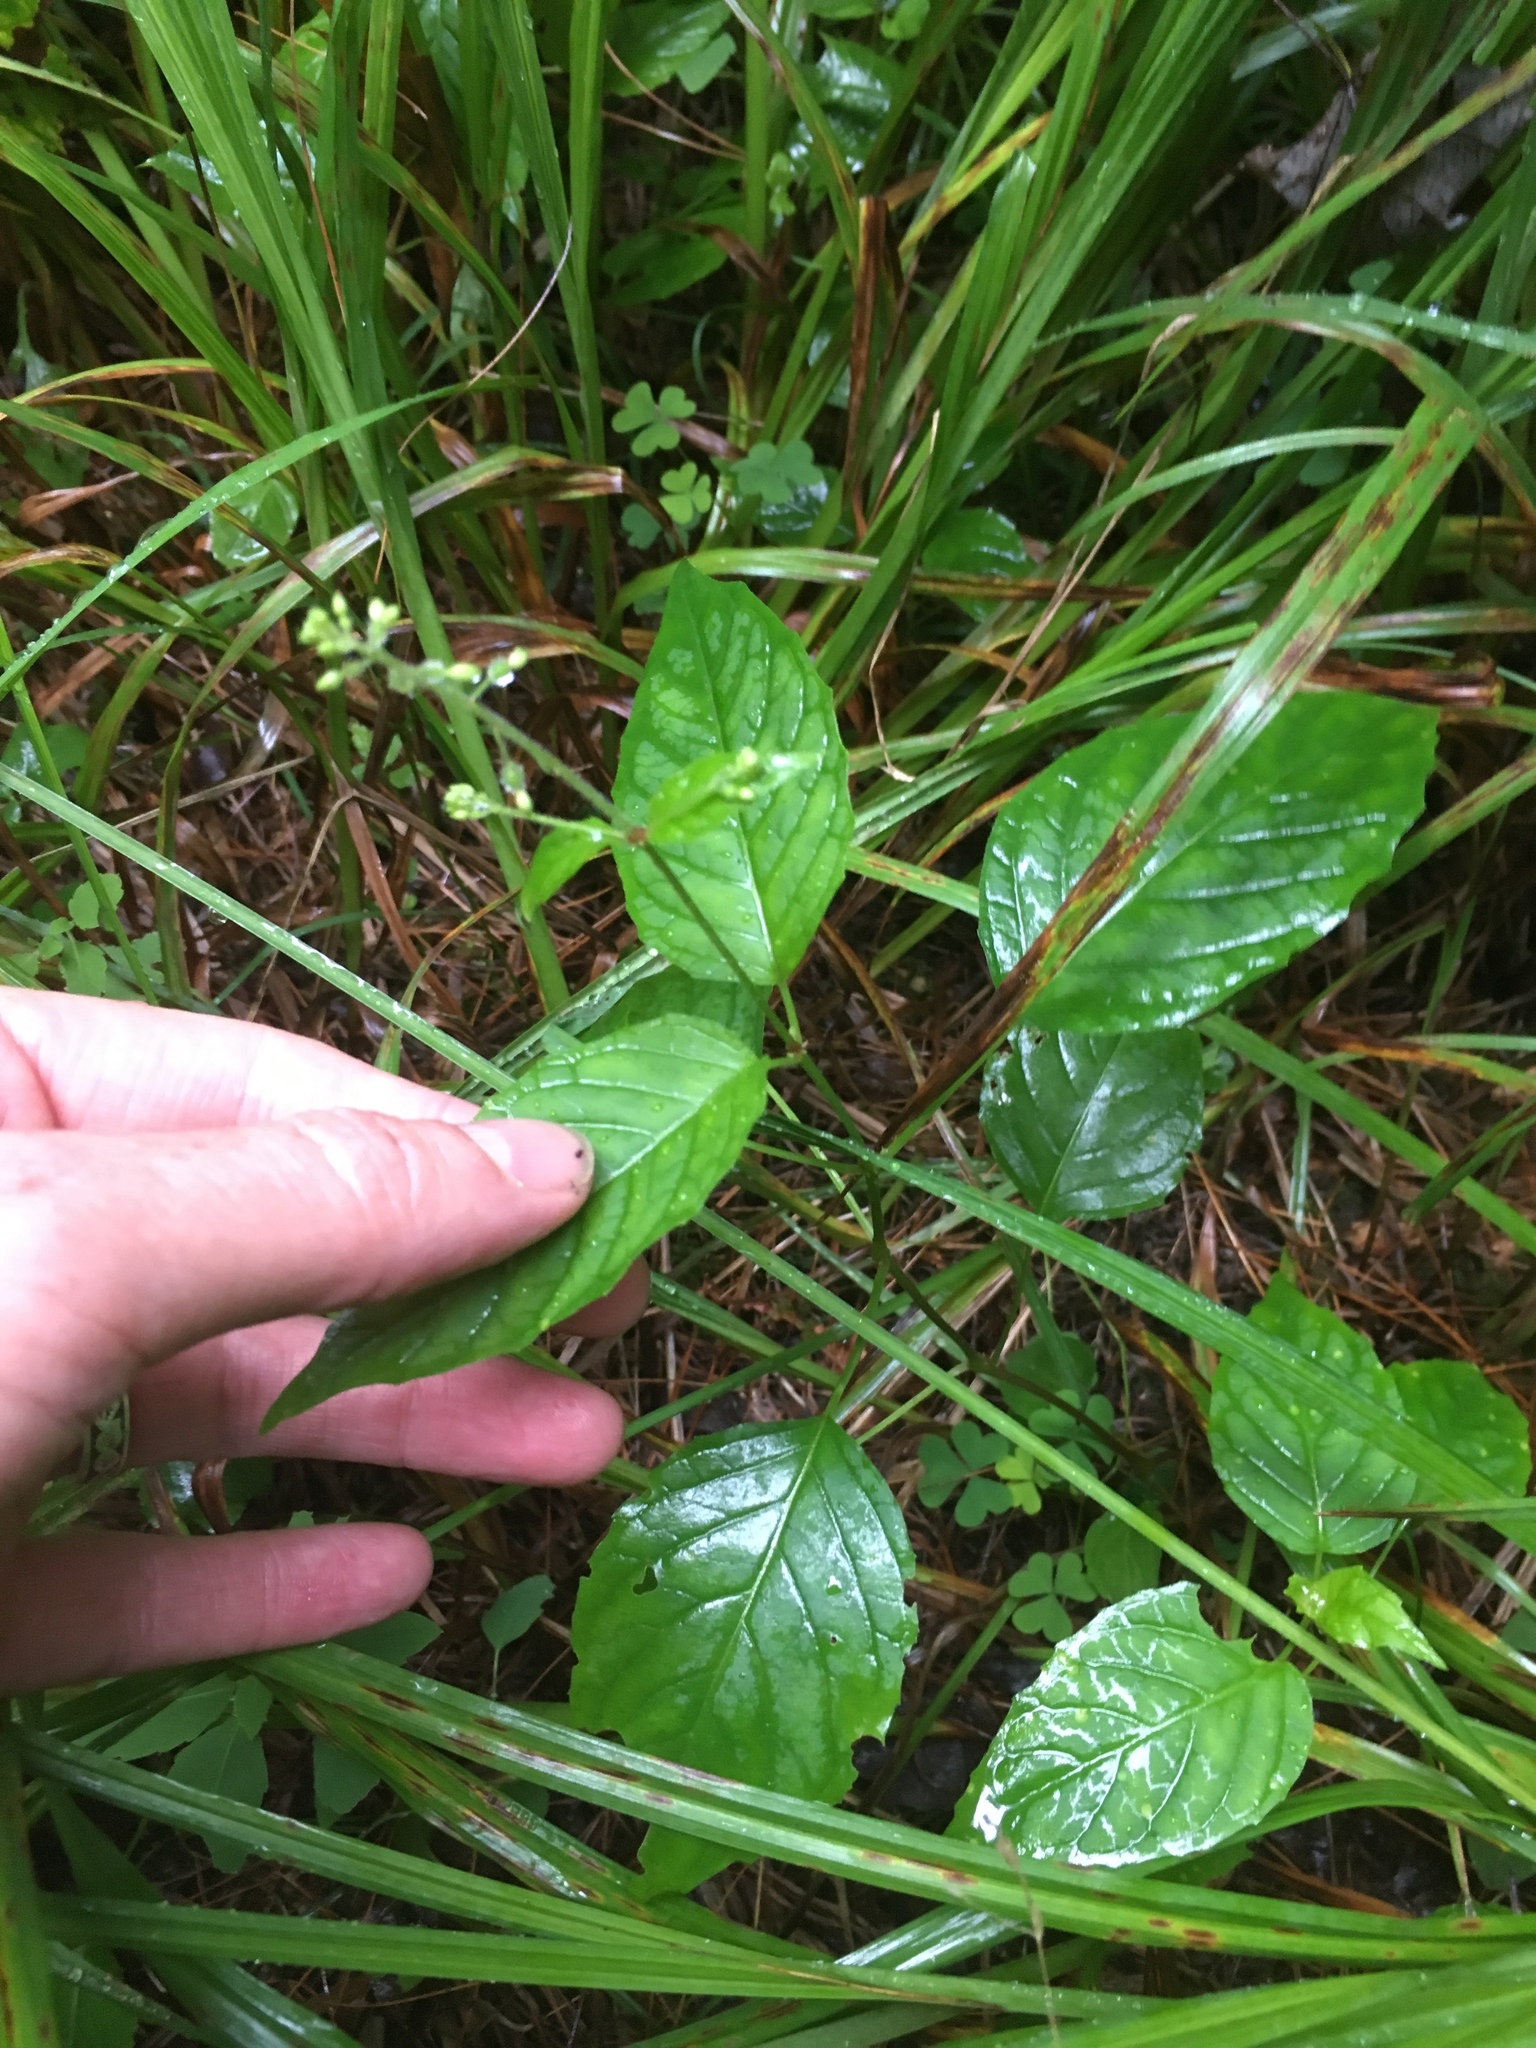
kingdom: Plantae
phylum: Tracheophyta
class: Magnoliopsida
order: Myrtales
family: Onagraceae
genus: Circaea
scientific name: Circaea canadensis
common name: Broad-leaved enchanter's nightshade
